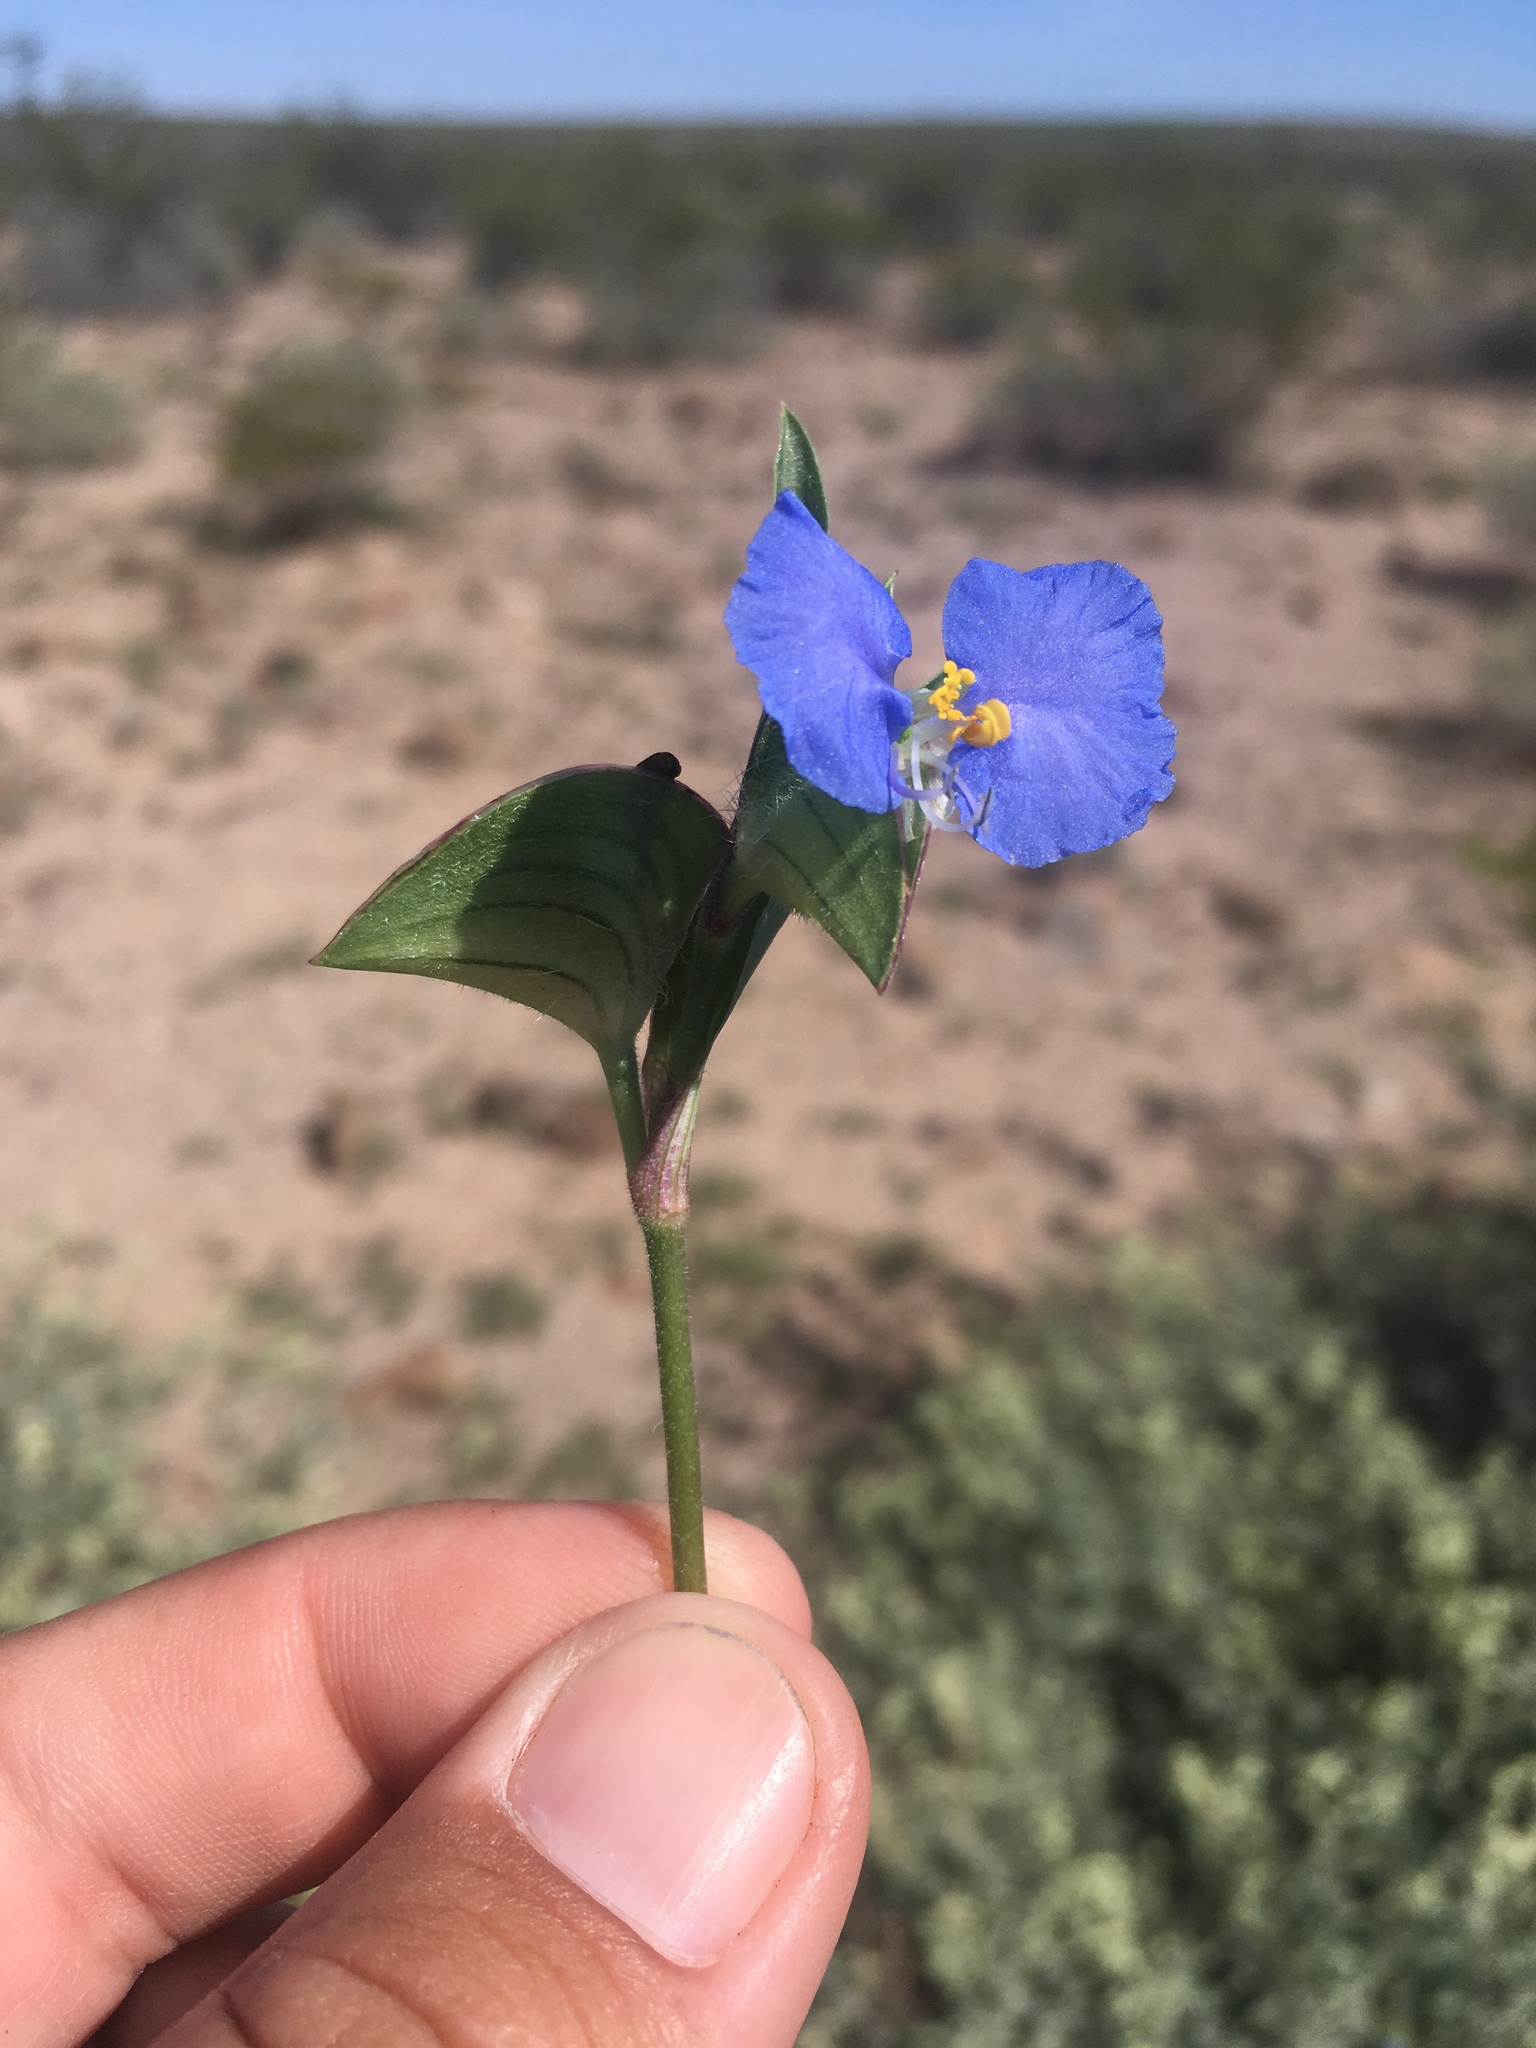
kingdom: Plantae
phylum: Tracheophyta
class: Liliopsida
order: Commelinales
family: Commelinaceae
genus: Commelina
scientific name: Commelina erecta
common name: Blousel blommetjie
